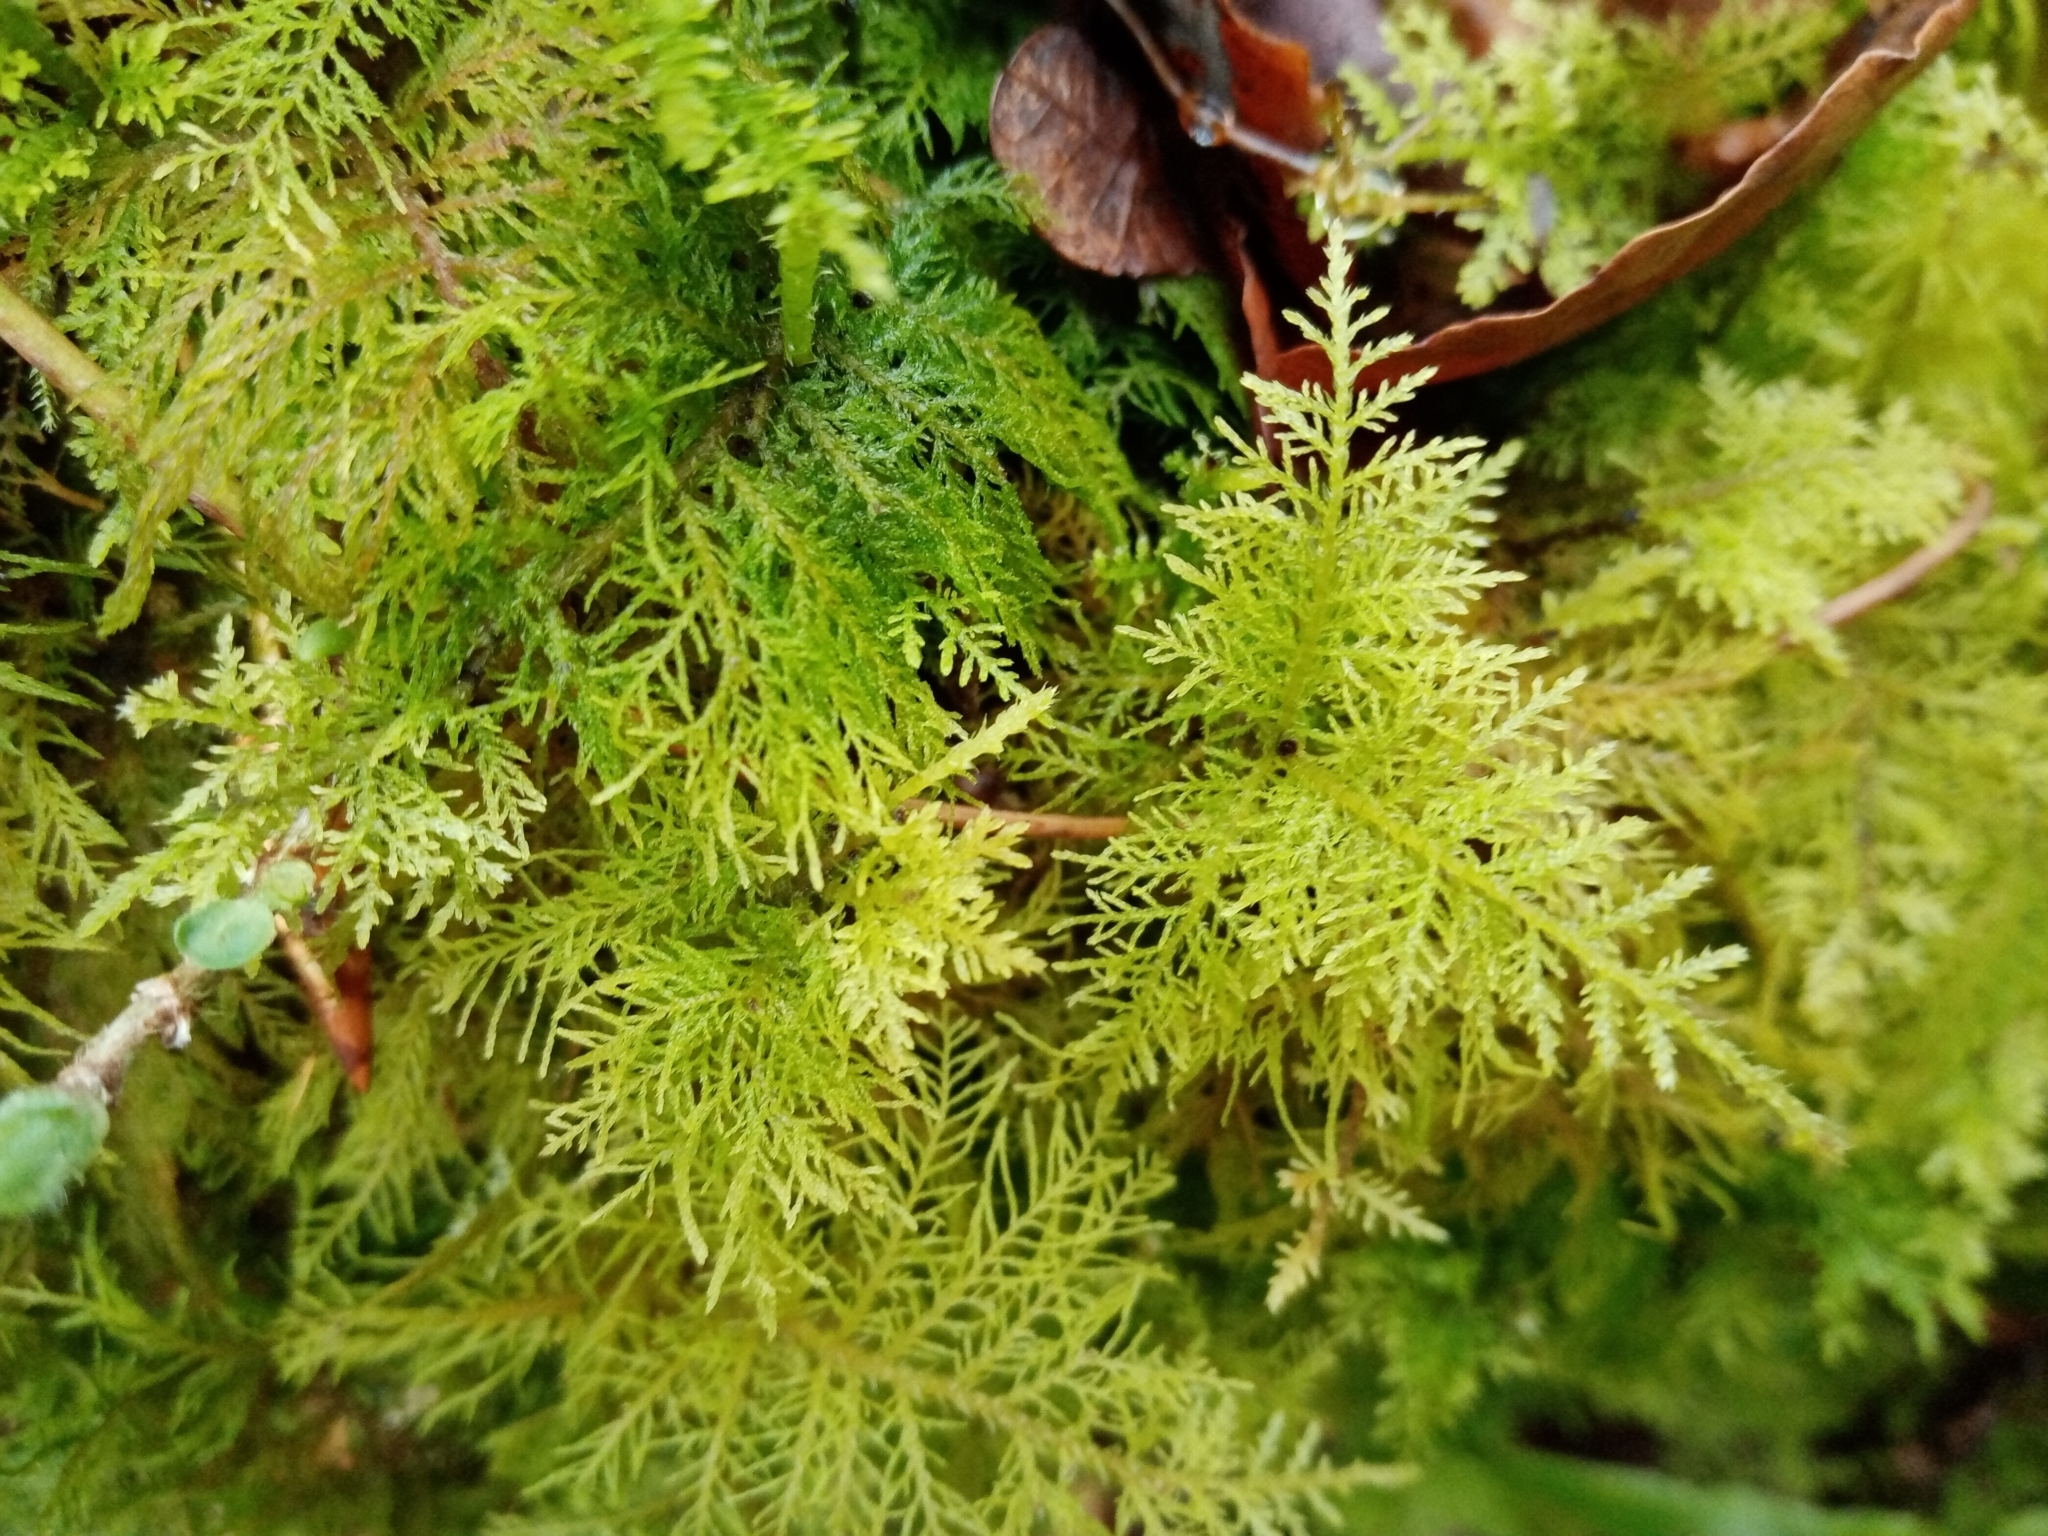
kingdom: Plantae
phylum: Bryophyta
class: Bryopsida
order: Hypnales
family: Thuidiaceae
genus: Thuidium
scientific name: Thuidium tamariscinum
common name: Common tamarisk-moss
